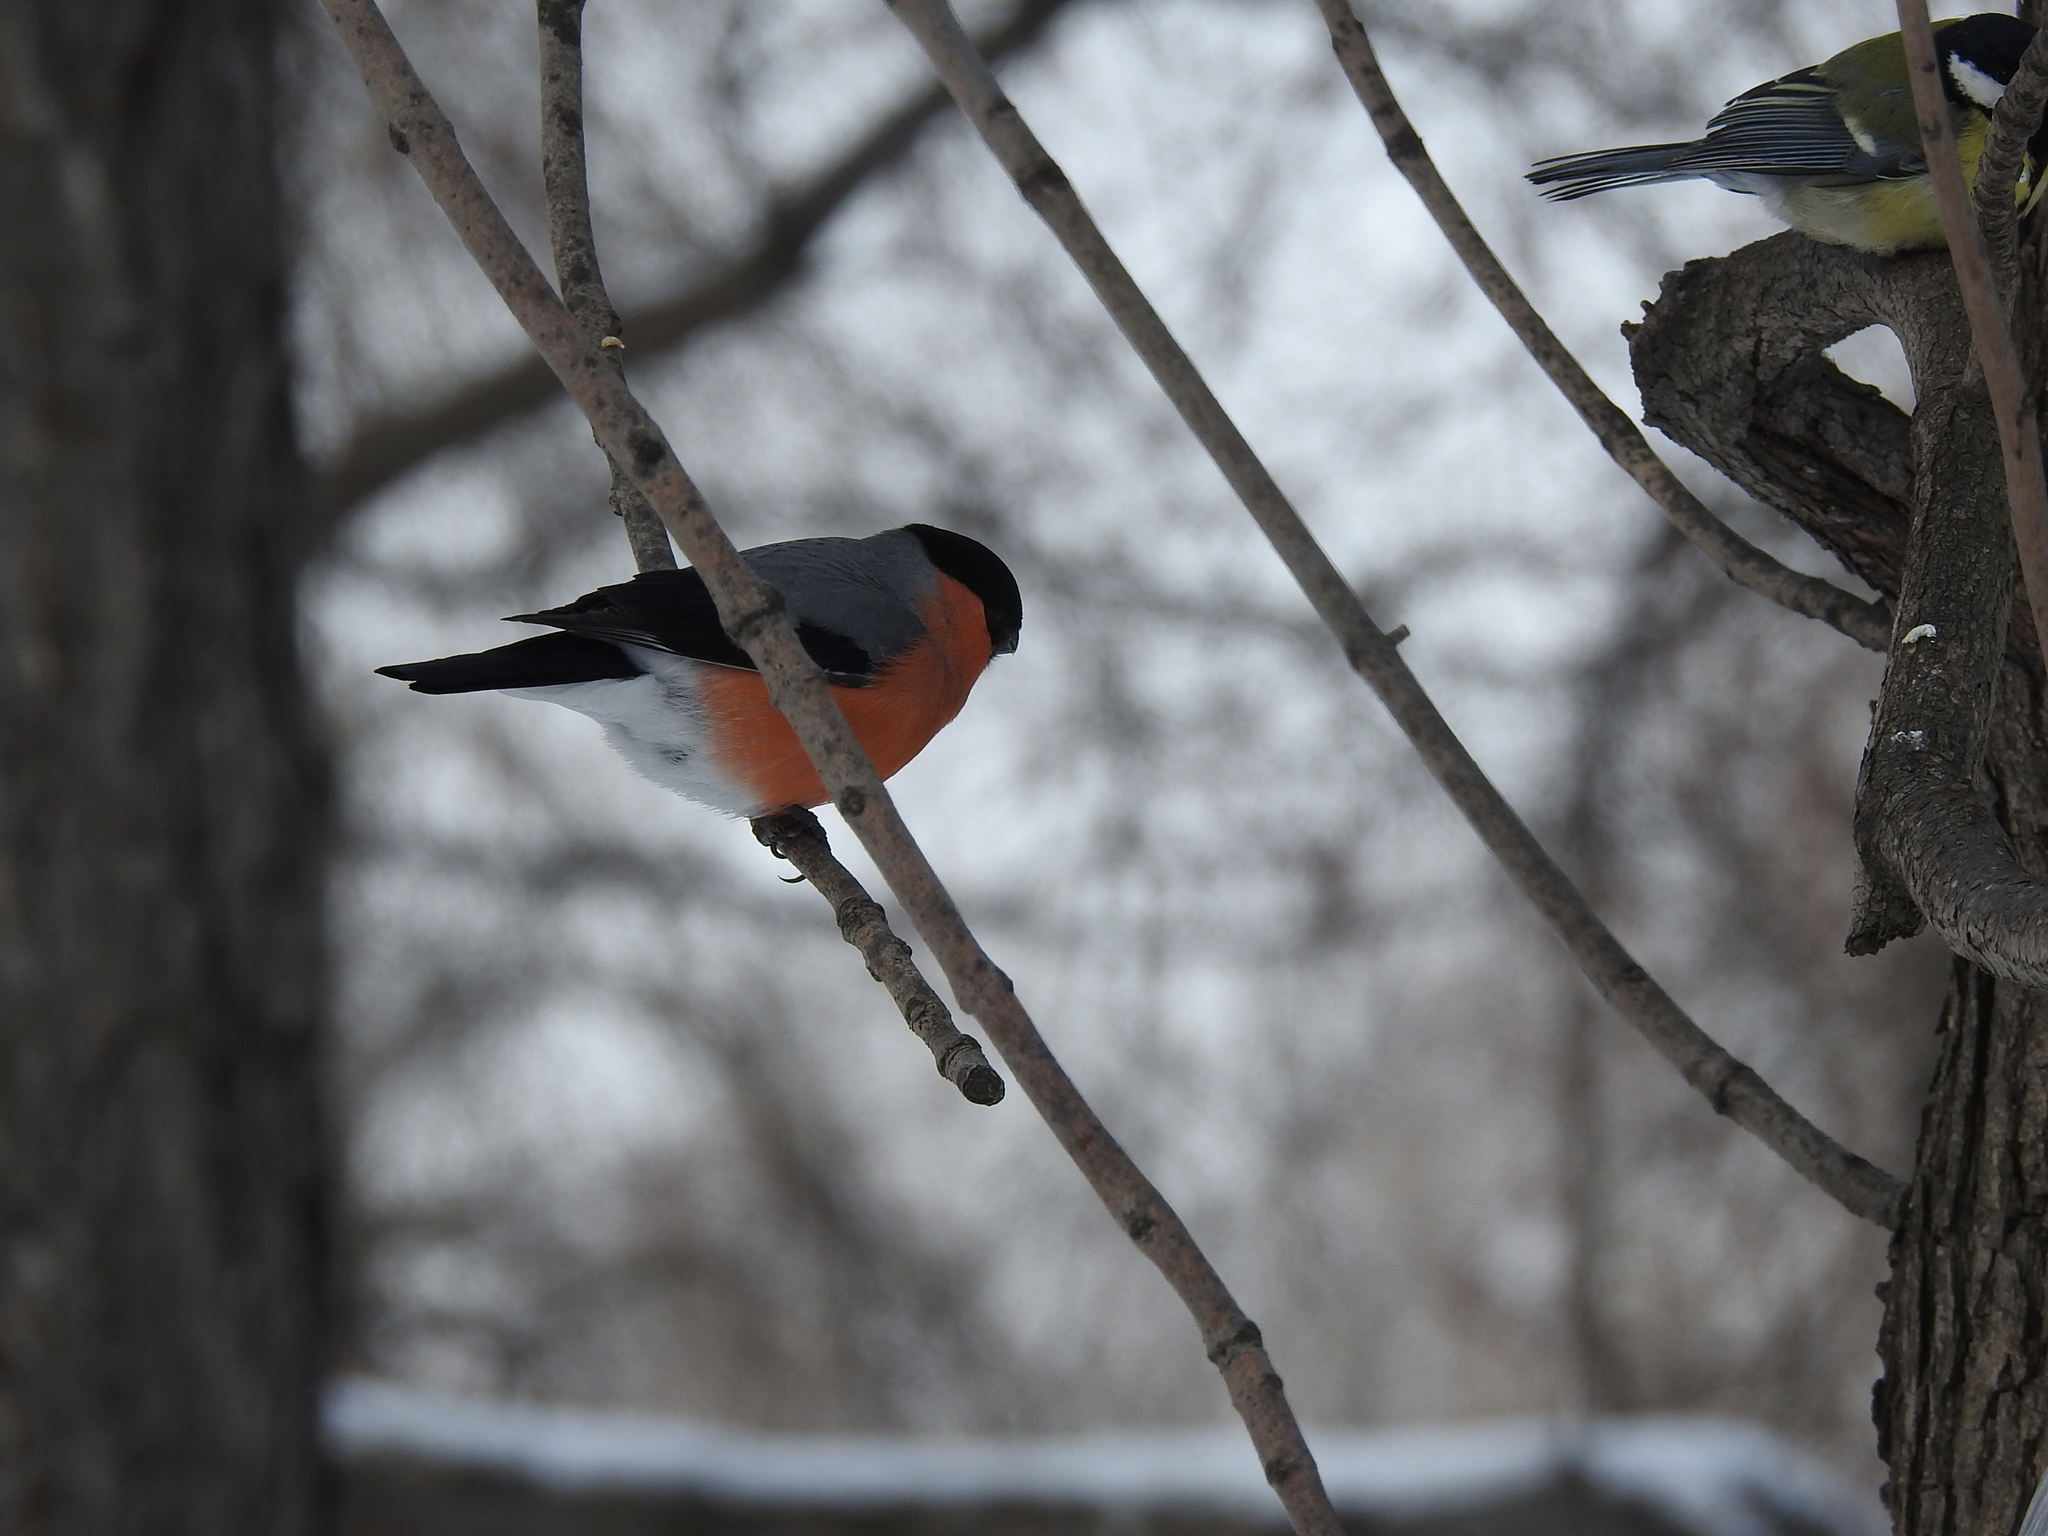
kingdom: Animalia
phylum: Chordata
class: Aves
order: Passeriformes
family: Fringillidae
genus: Pyrrhula
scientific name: Pyrrhula pyrrhula
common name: Eurasian bullfinch
